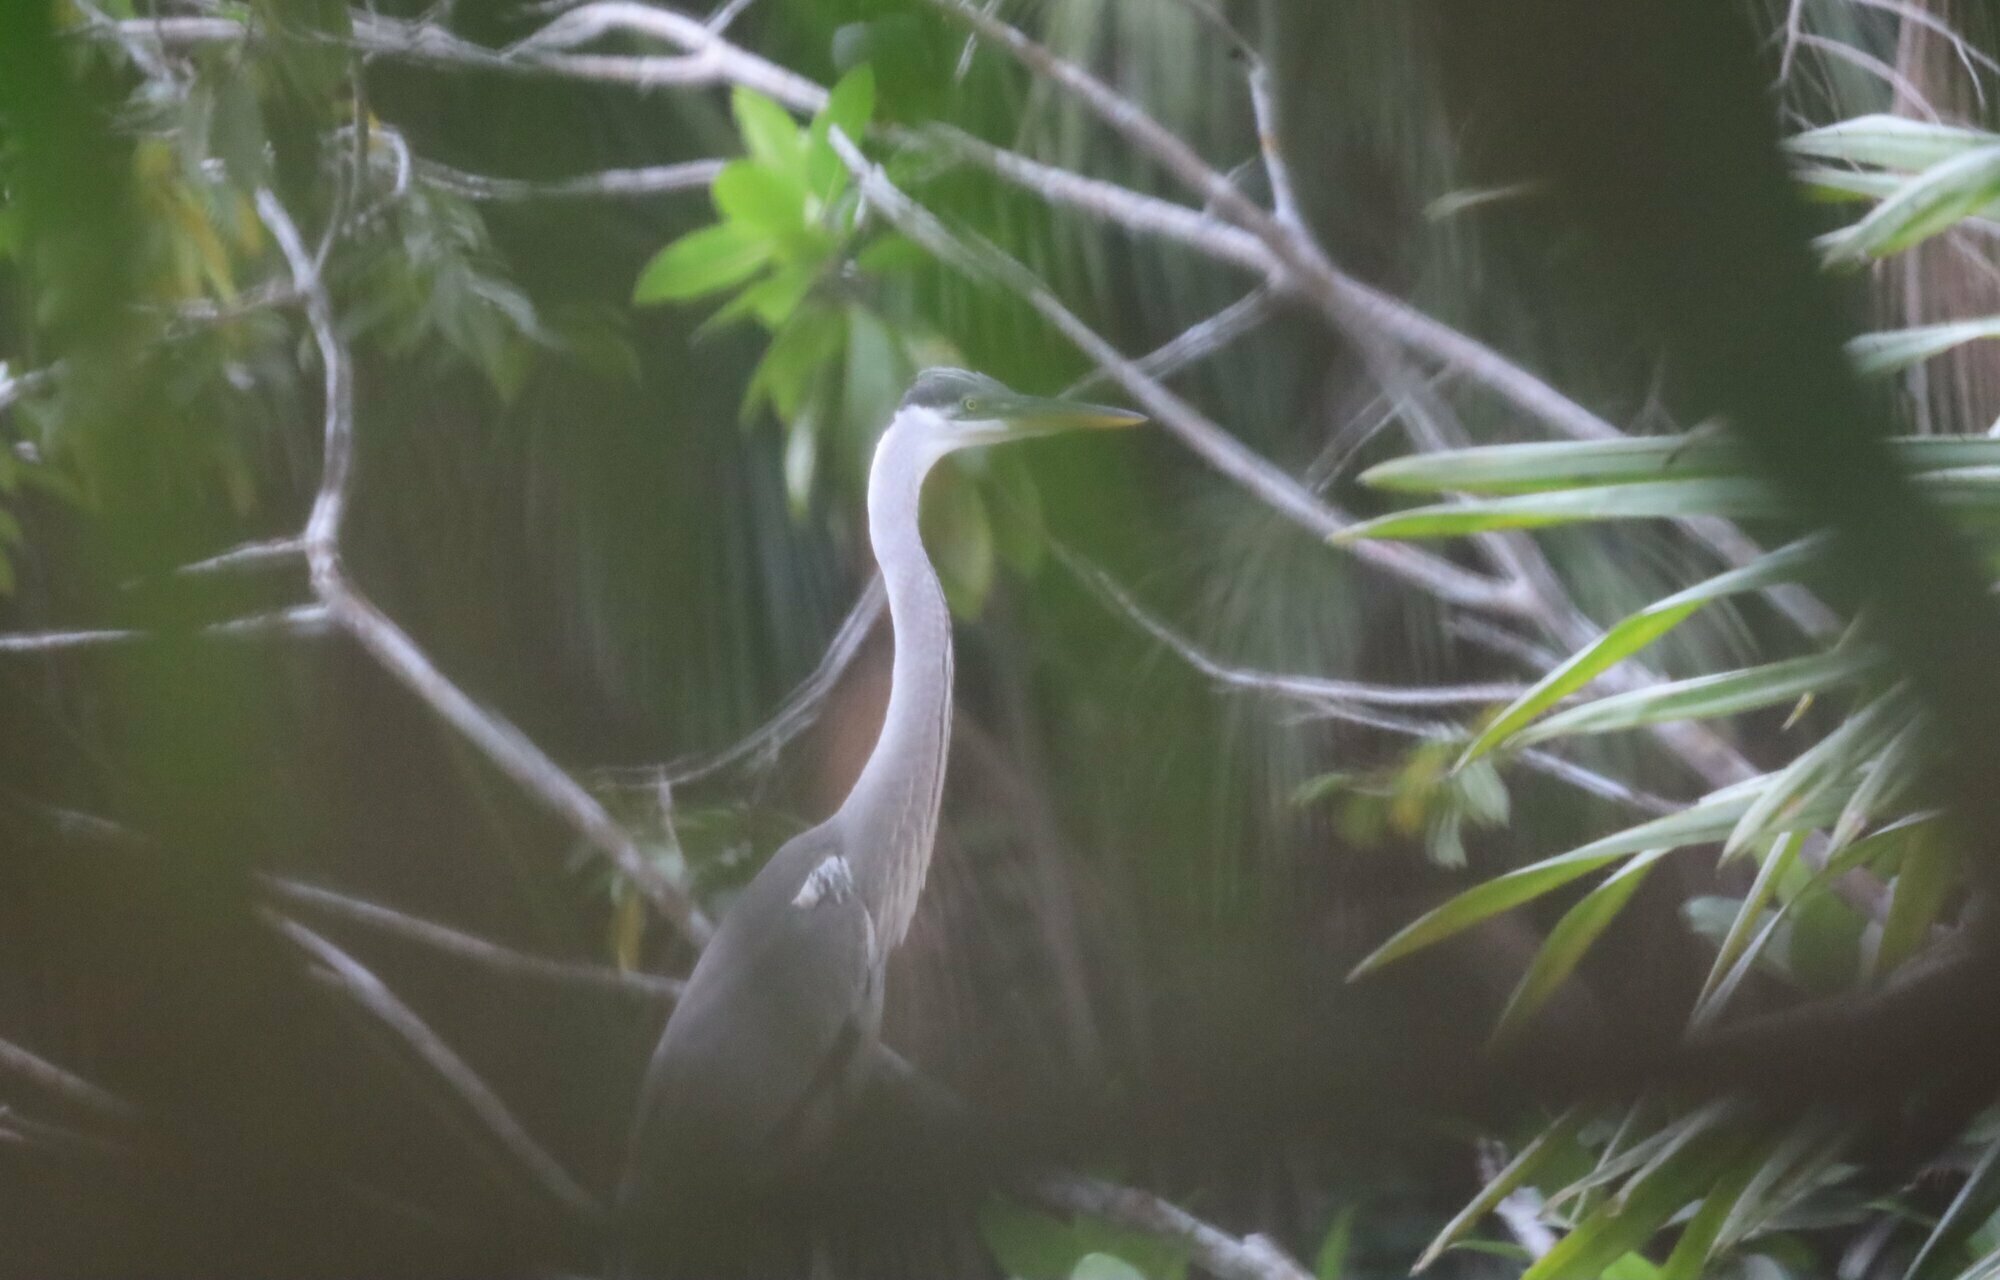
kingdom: Animalia
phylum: Chordata
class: Aves
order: Pelecaniformes
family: Ardeidae
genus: Ardea
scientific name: Ardea cocoi
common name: Cocoi heron
